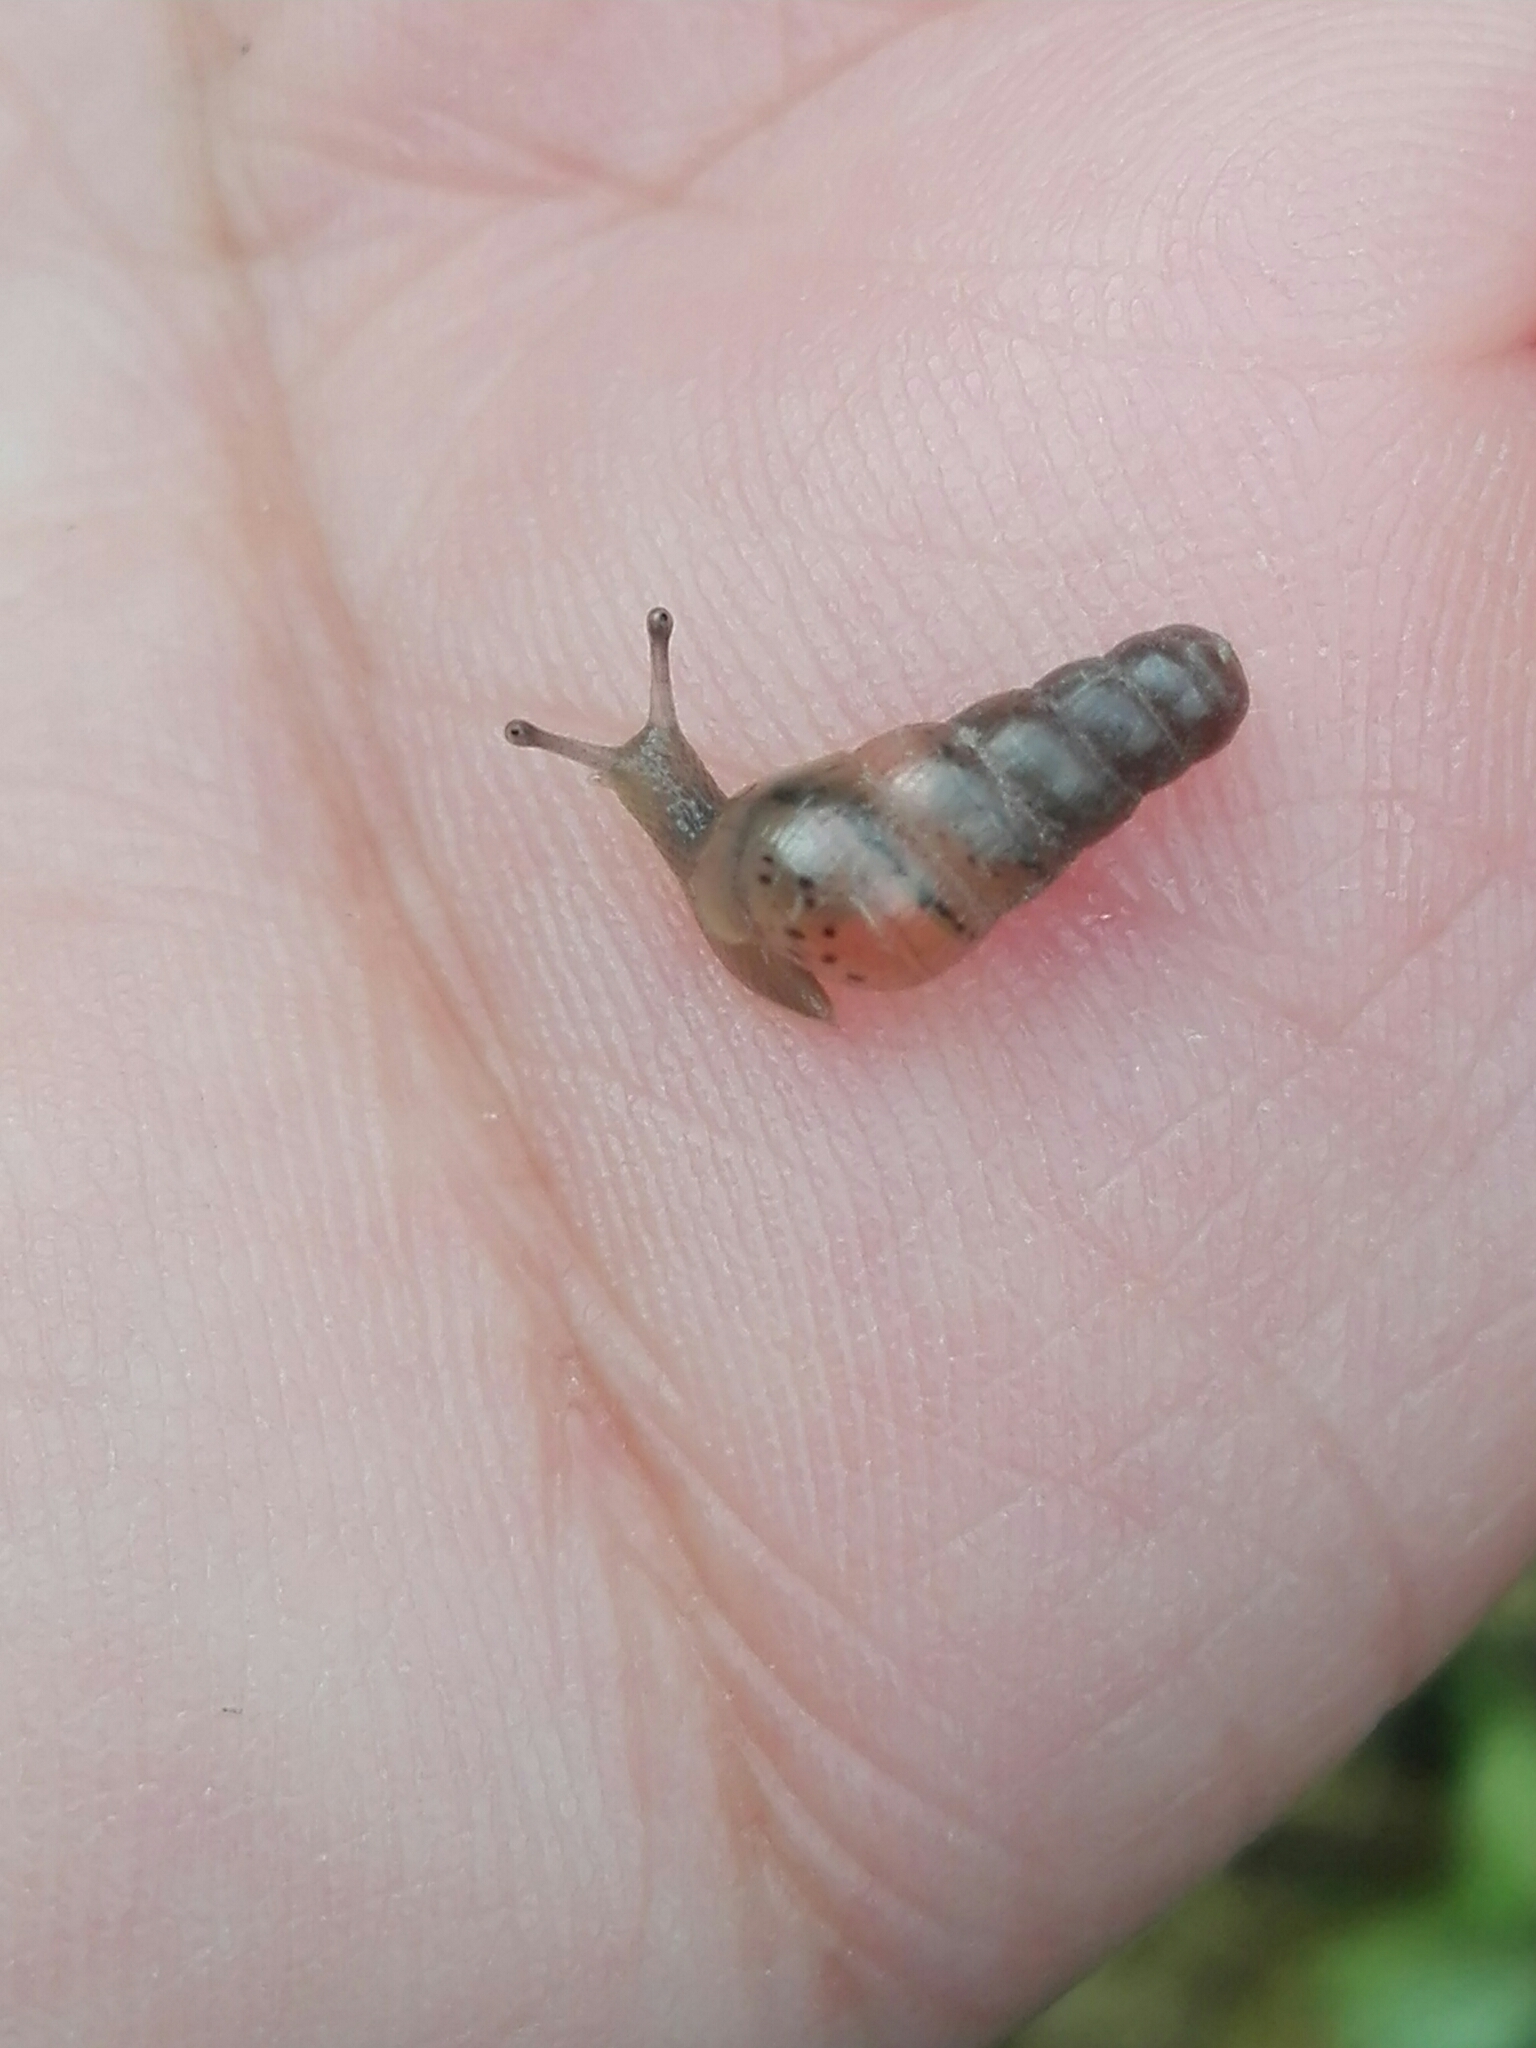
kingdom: Animalia
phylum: Mollusca
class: Gastropoda
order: Stylommatophora
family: Achatinidae
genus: Rumina
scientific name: Rumina decollata
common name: Decollate snail
